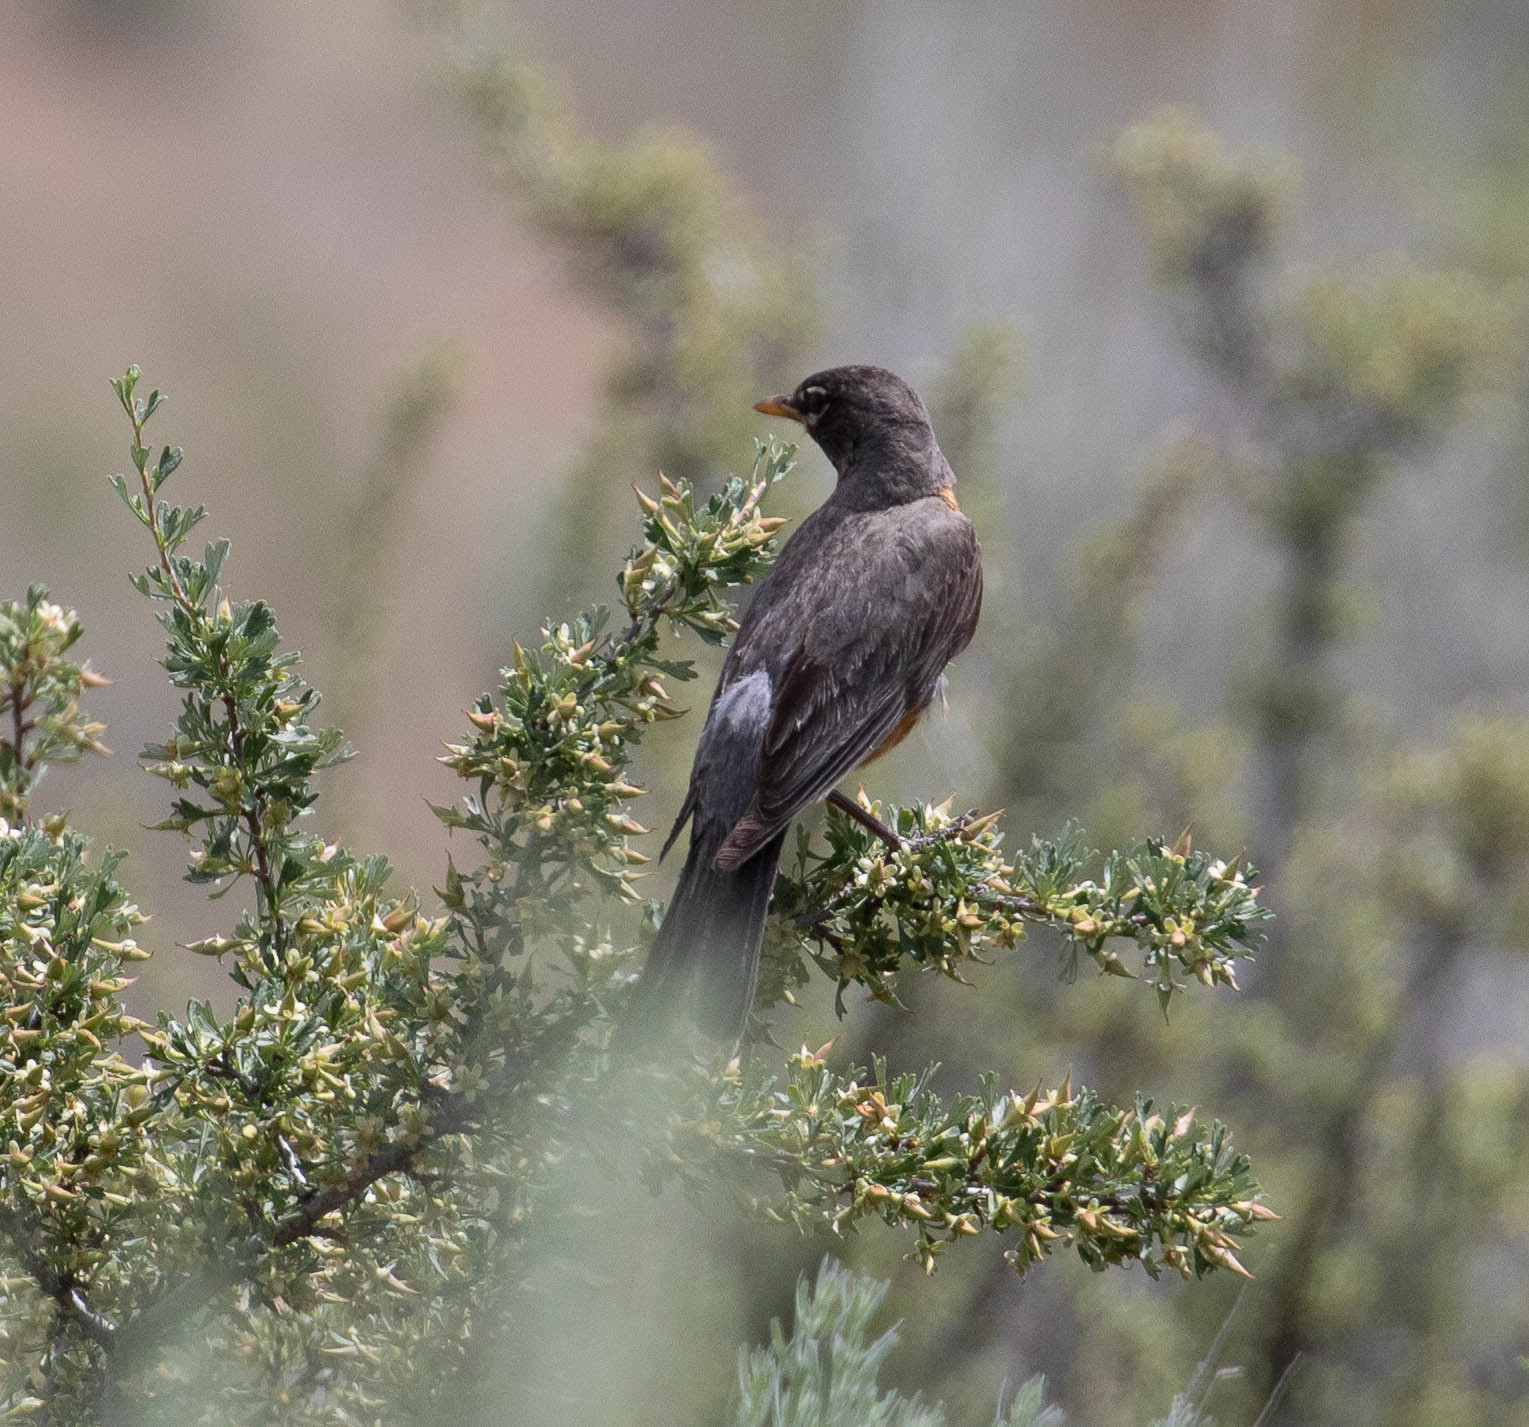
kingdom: Animalia
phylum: Chordata
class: Aves
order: Passeriformes
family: Turdidae
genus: Turdus
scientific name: Turdus migratorius
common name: American robin
